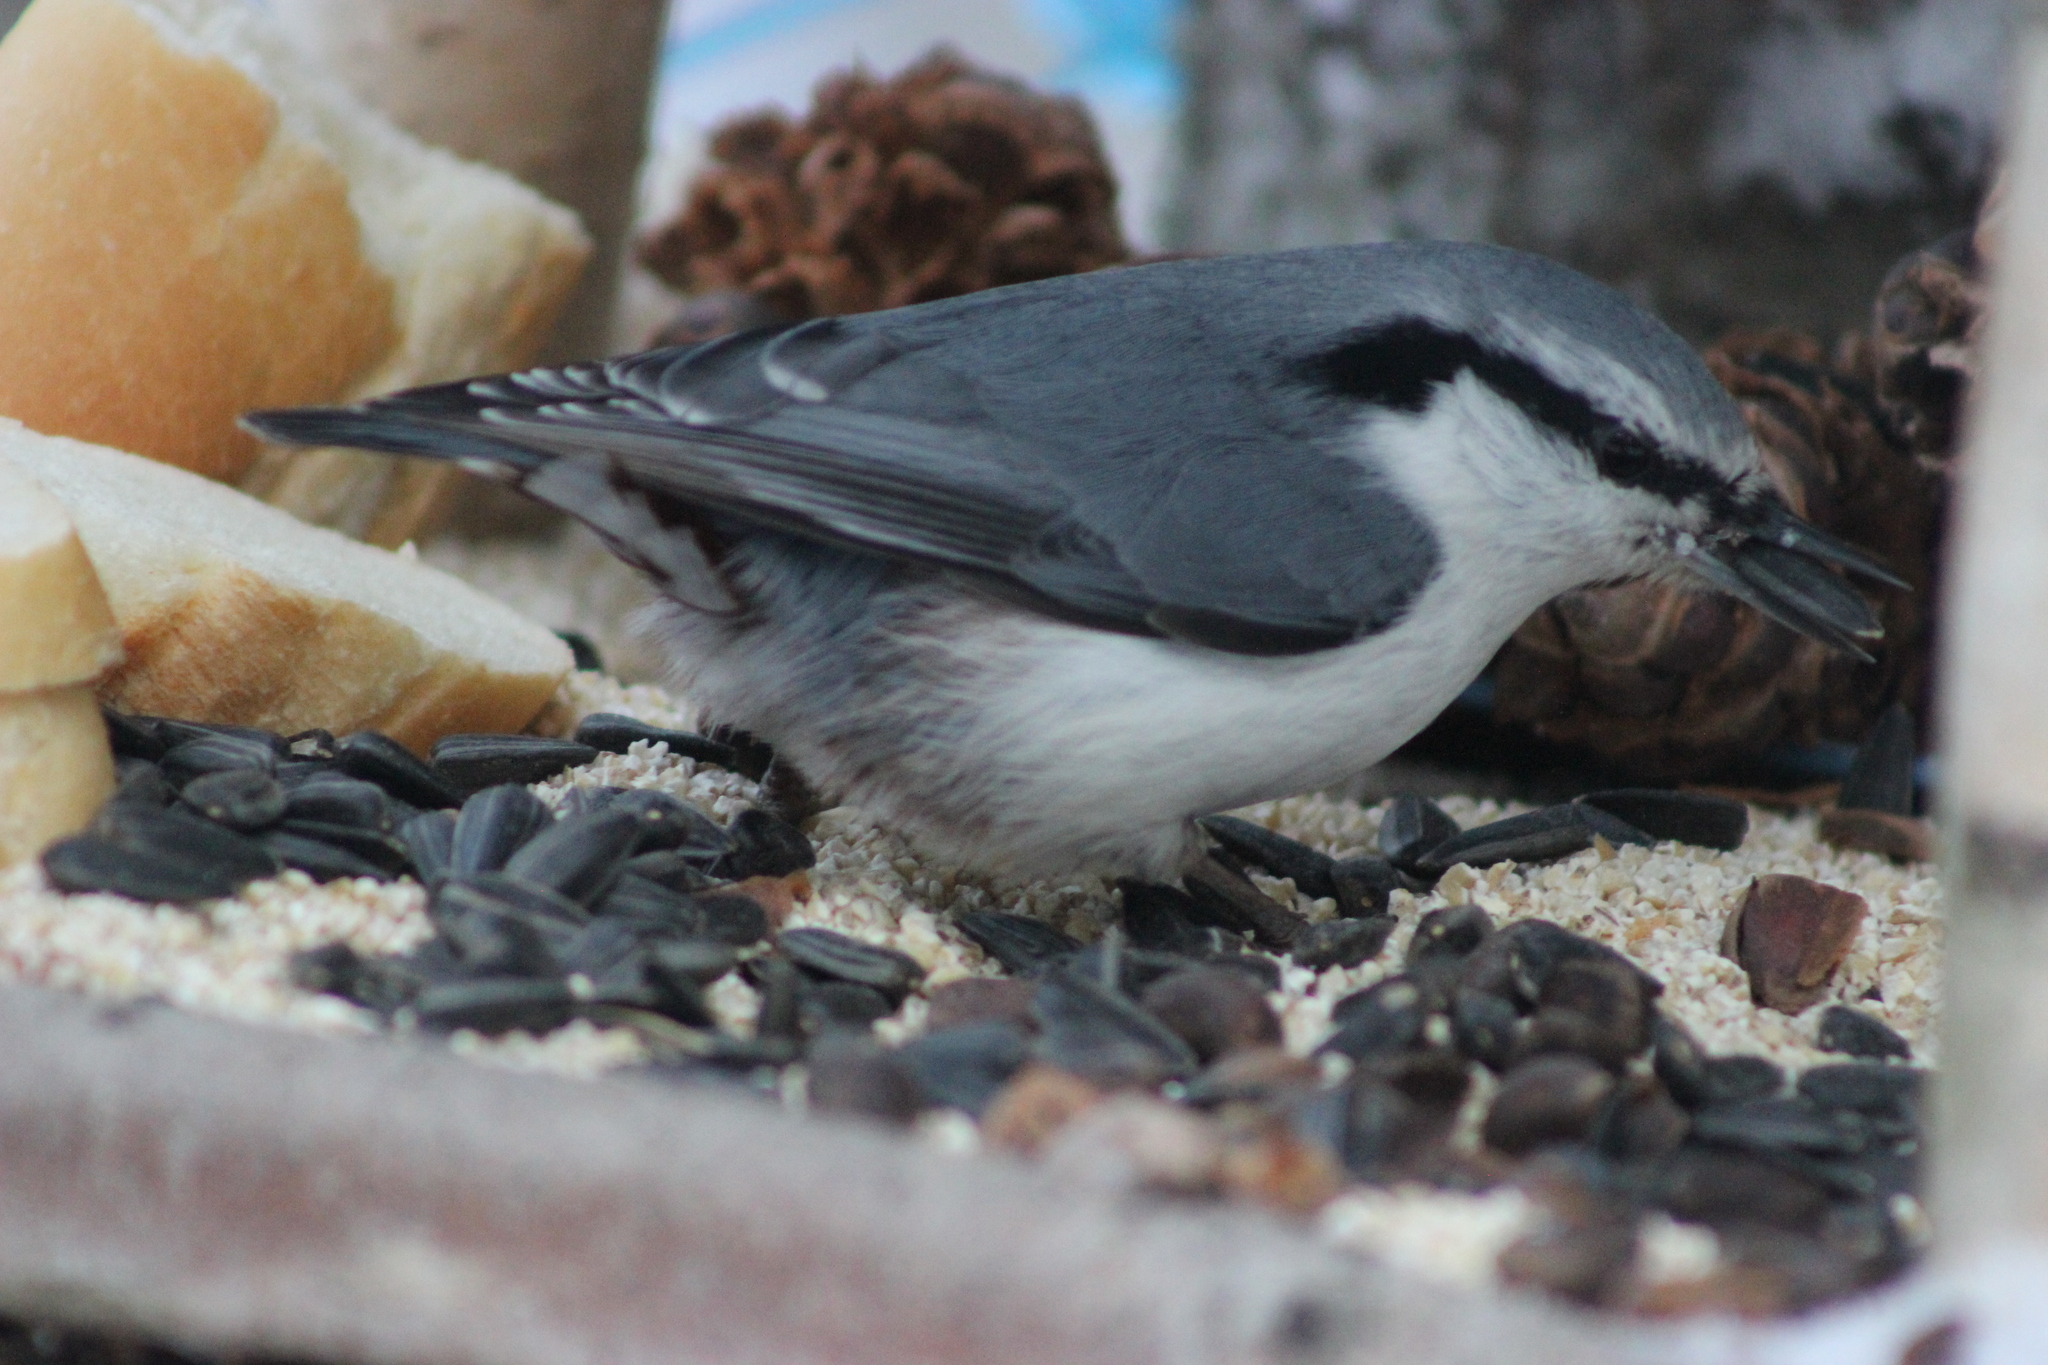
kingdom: Animalia
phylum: Chordata
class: Aves
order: Passeriformes
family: Sittidae
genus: Sitta
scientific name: Sitta europaea
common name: Eurasian nuthatch
